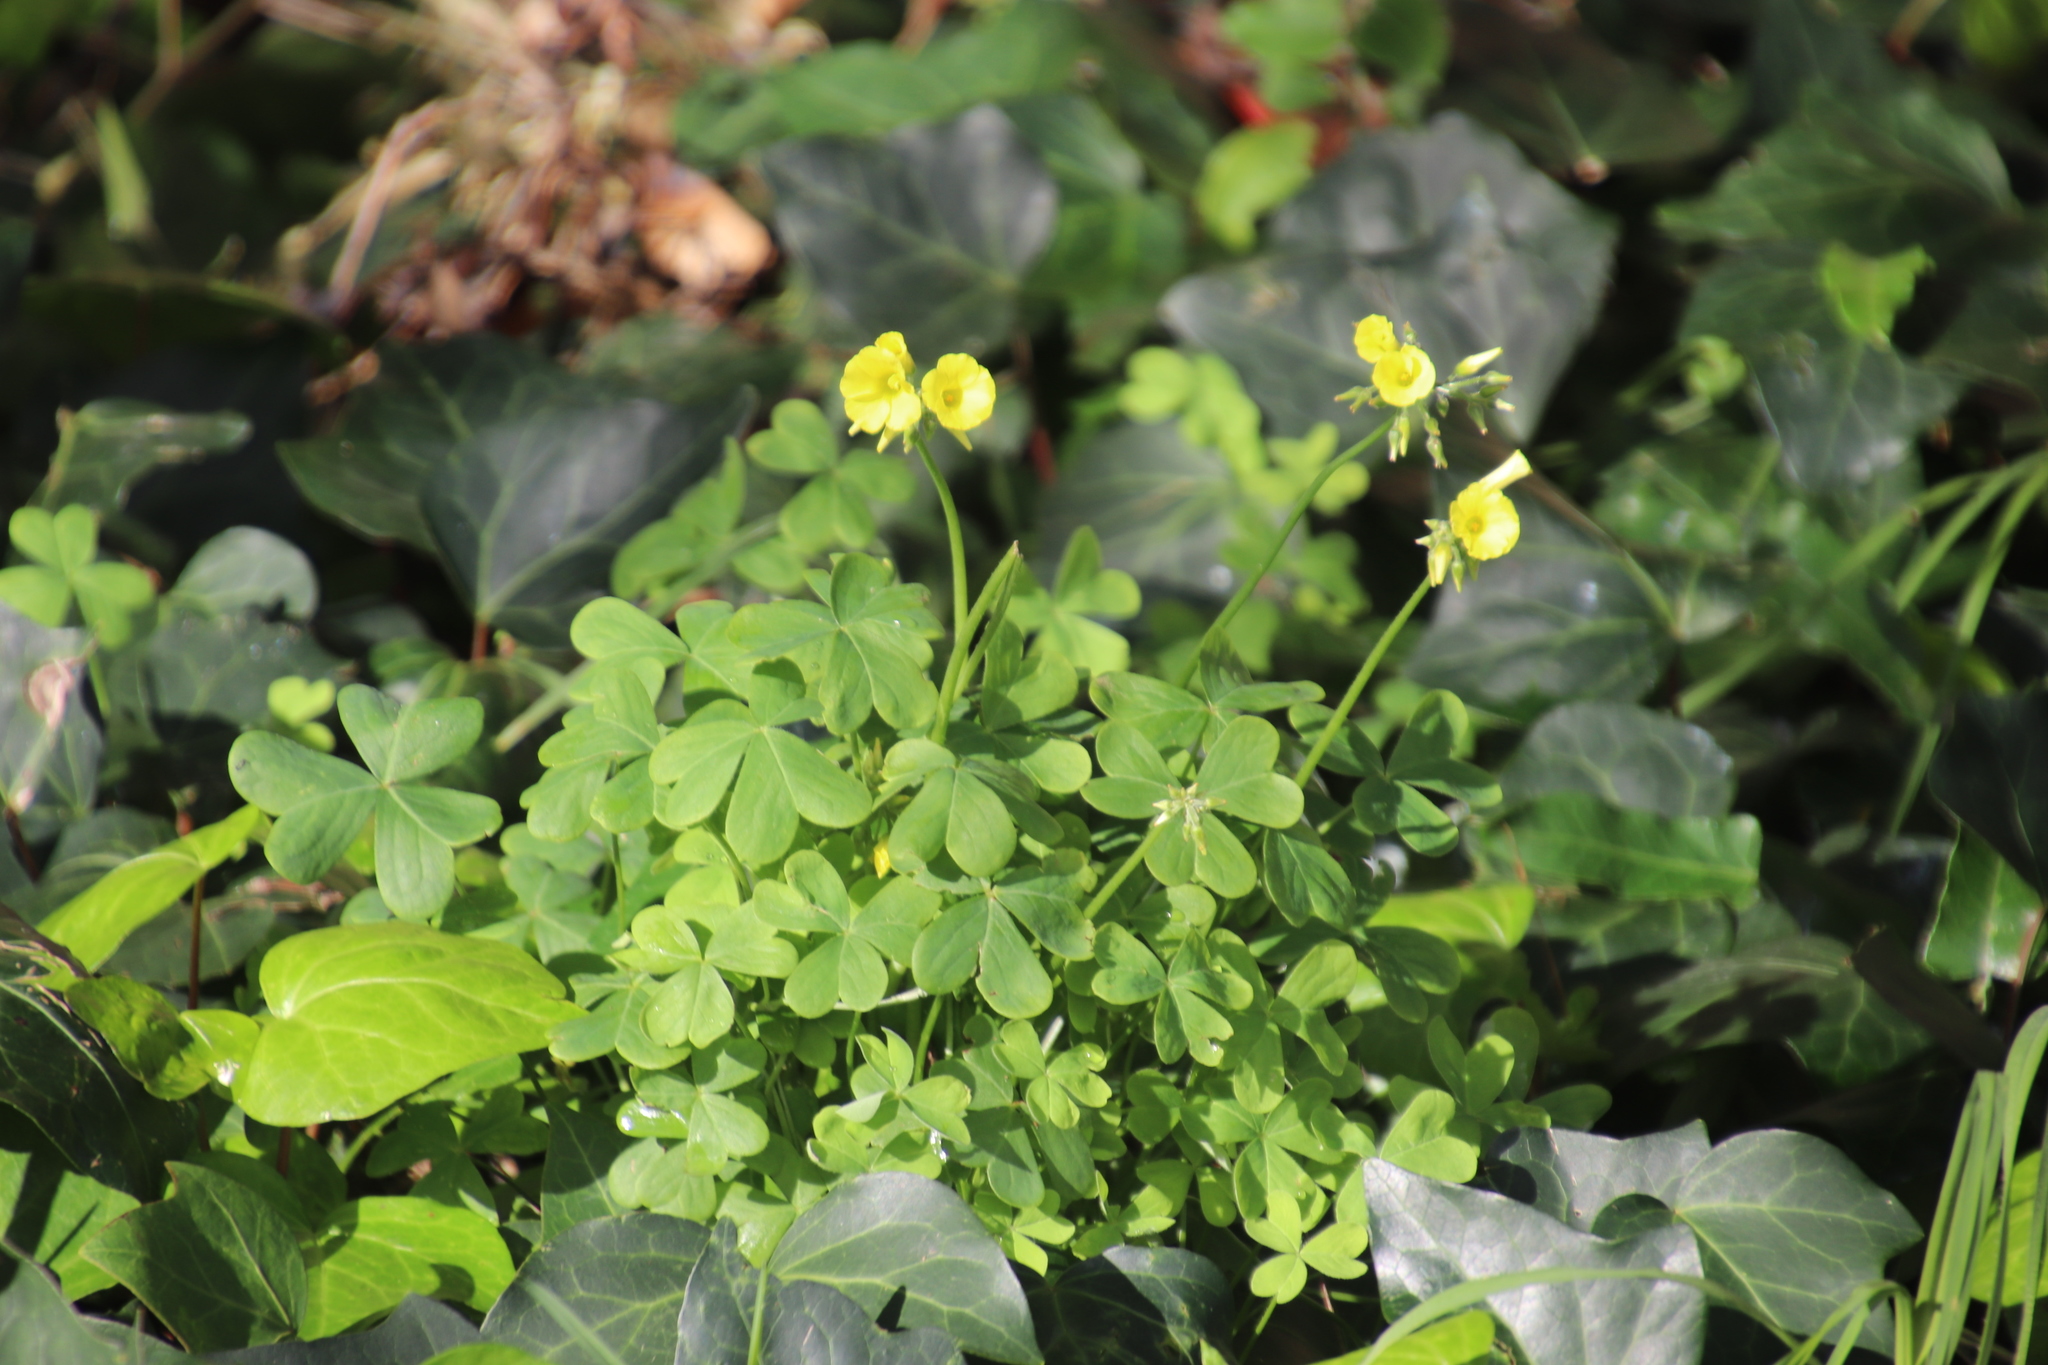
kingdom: Plantae
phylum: Tracheophyta
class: Magnoliopsida
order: Oxalidales
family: Oxalidaceae
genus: Oxalis
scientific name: Oxalis pes-caprae
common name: Bermuda-buttercup
